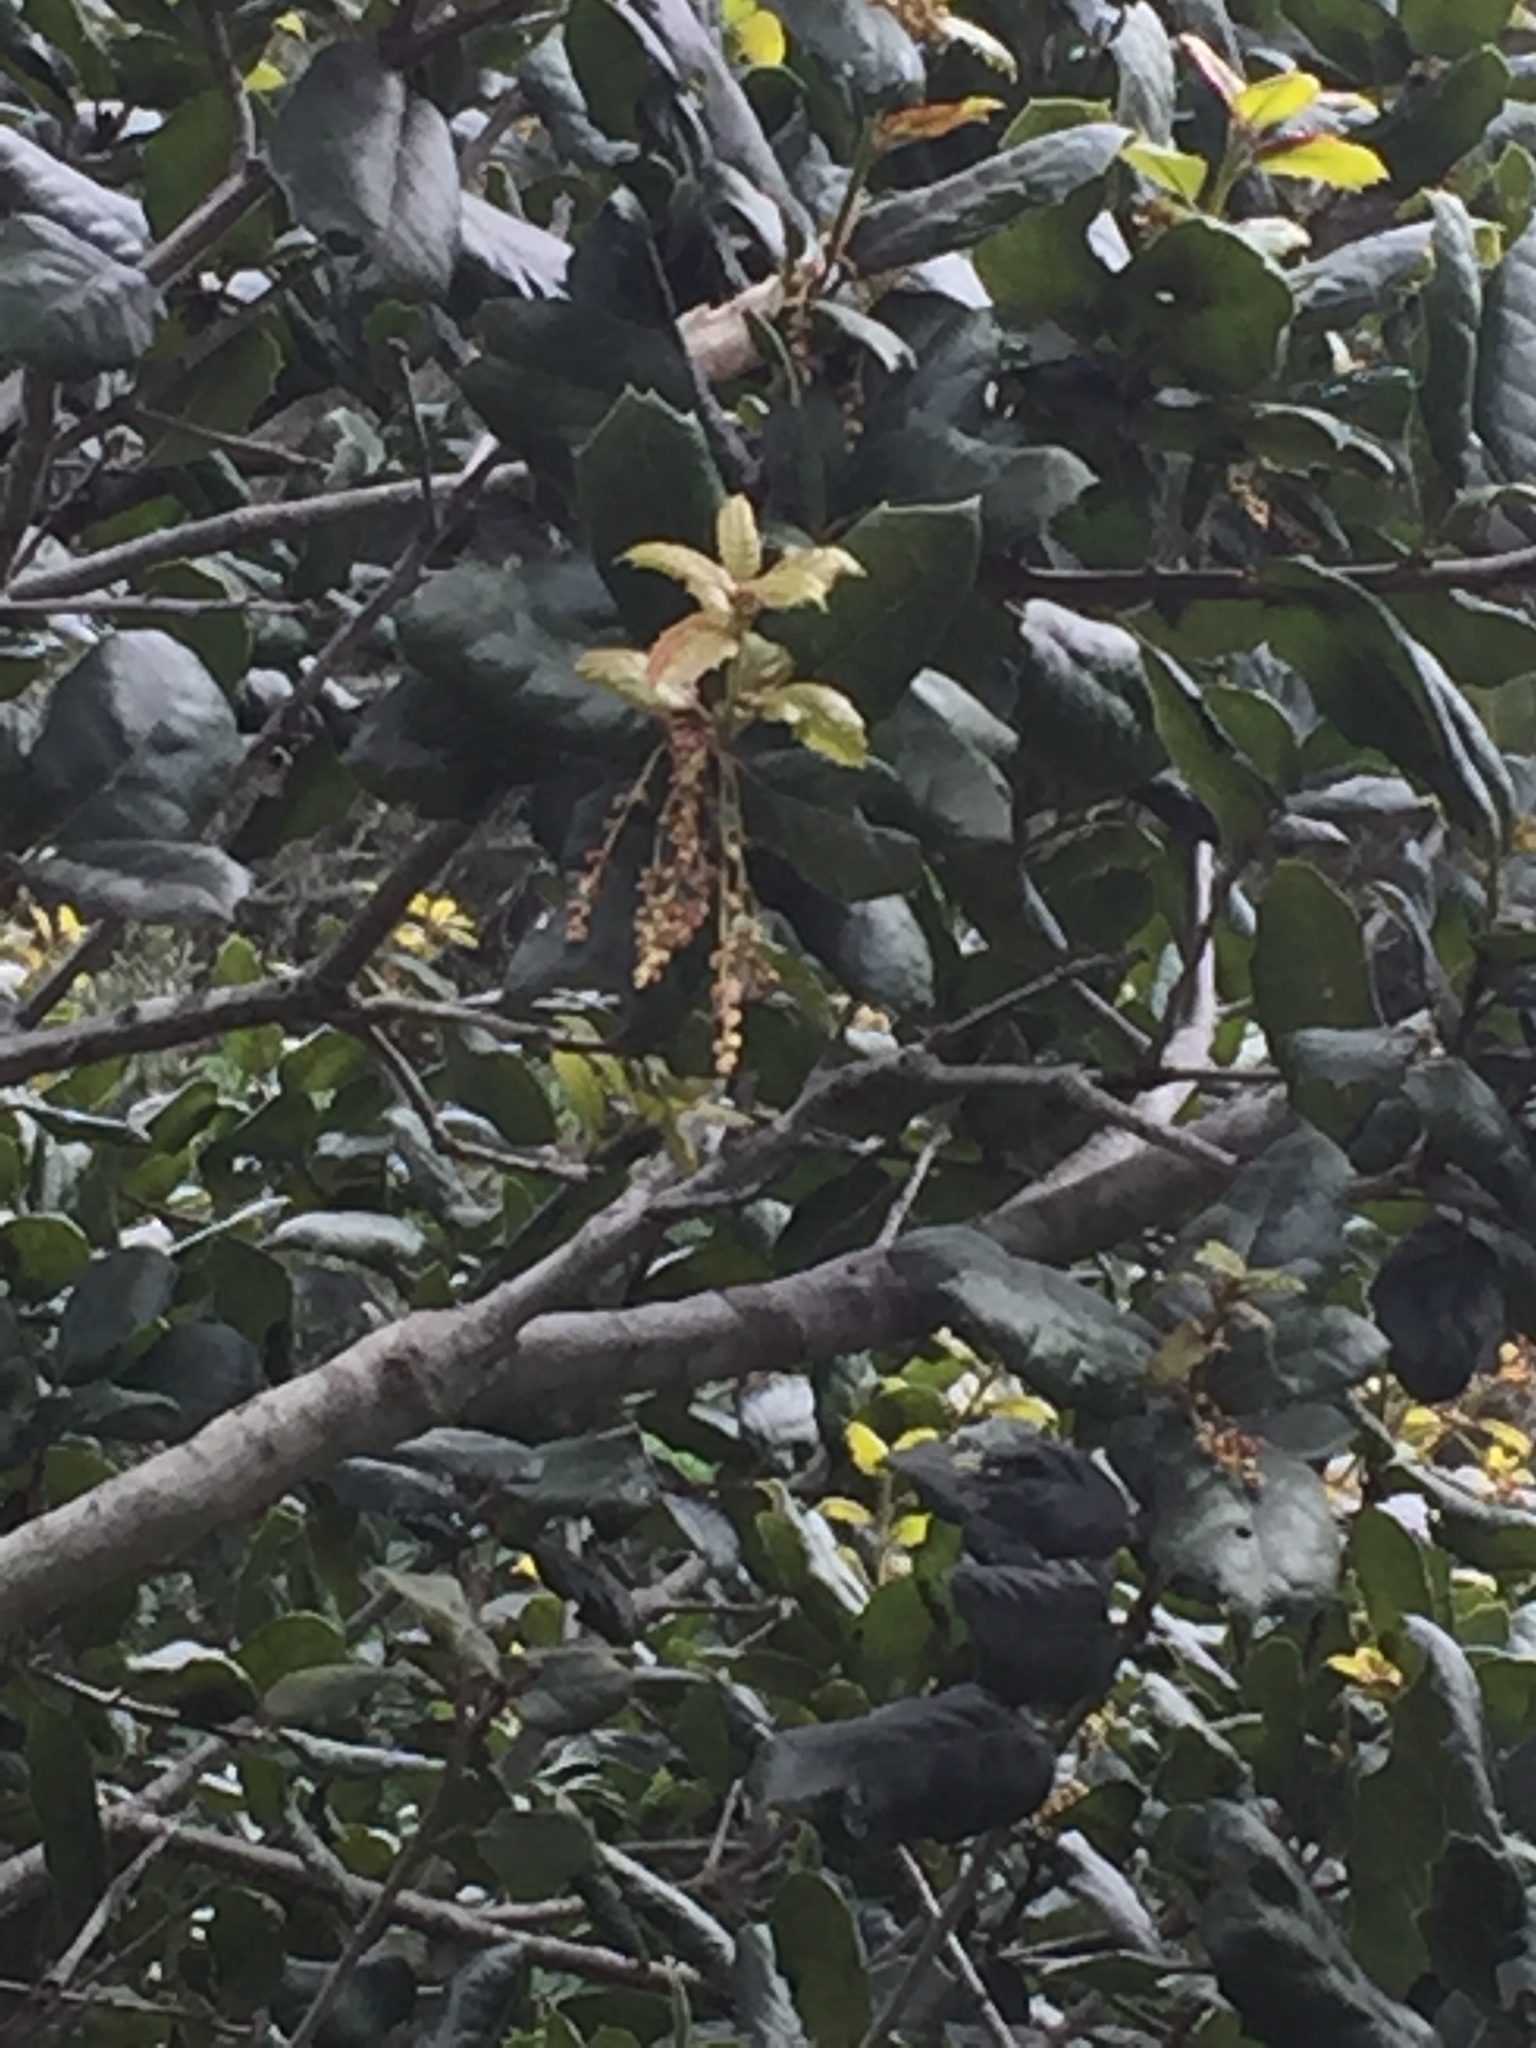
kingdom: Plantae
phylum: Tracheophyta
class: Magnoliopsida
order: Fagales
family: Fagaceae
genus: Quercus
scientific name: Quercus agrifolia
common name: California live oak
